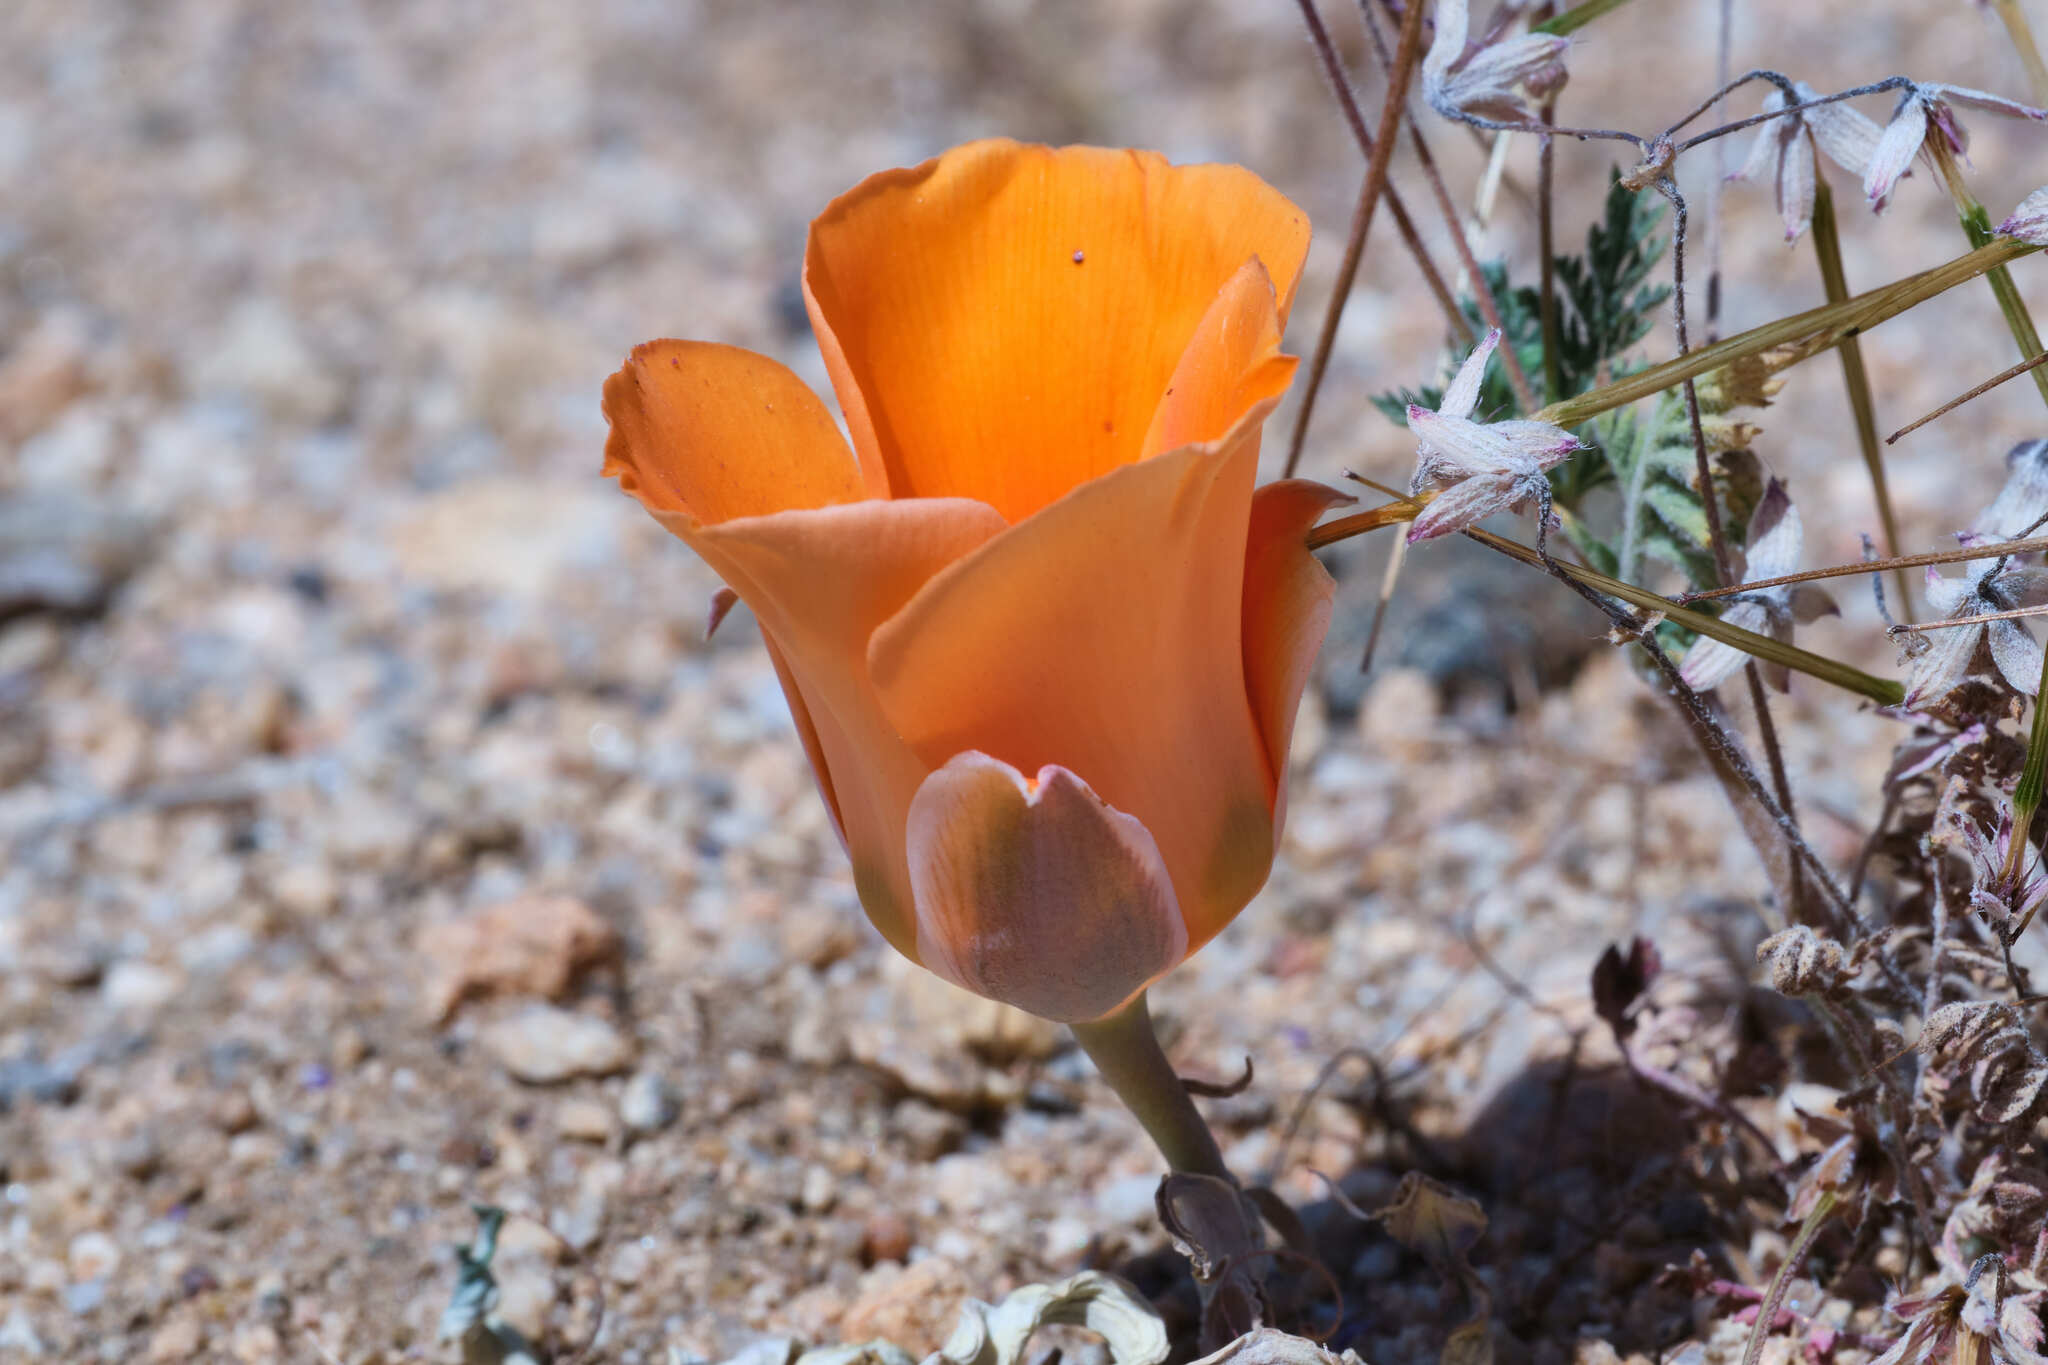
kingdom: Plantae
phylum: Tracheophyta
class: Liliopsida
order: Liliales
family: Liliaceae
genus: Calochortus
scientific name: Calochortus kennedyi
